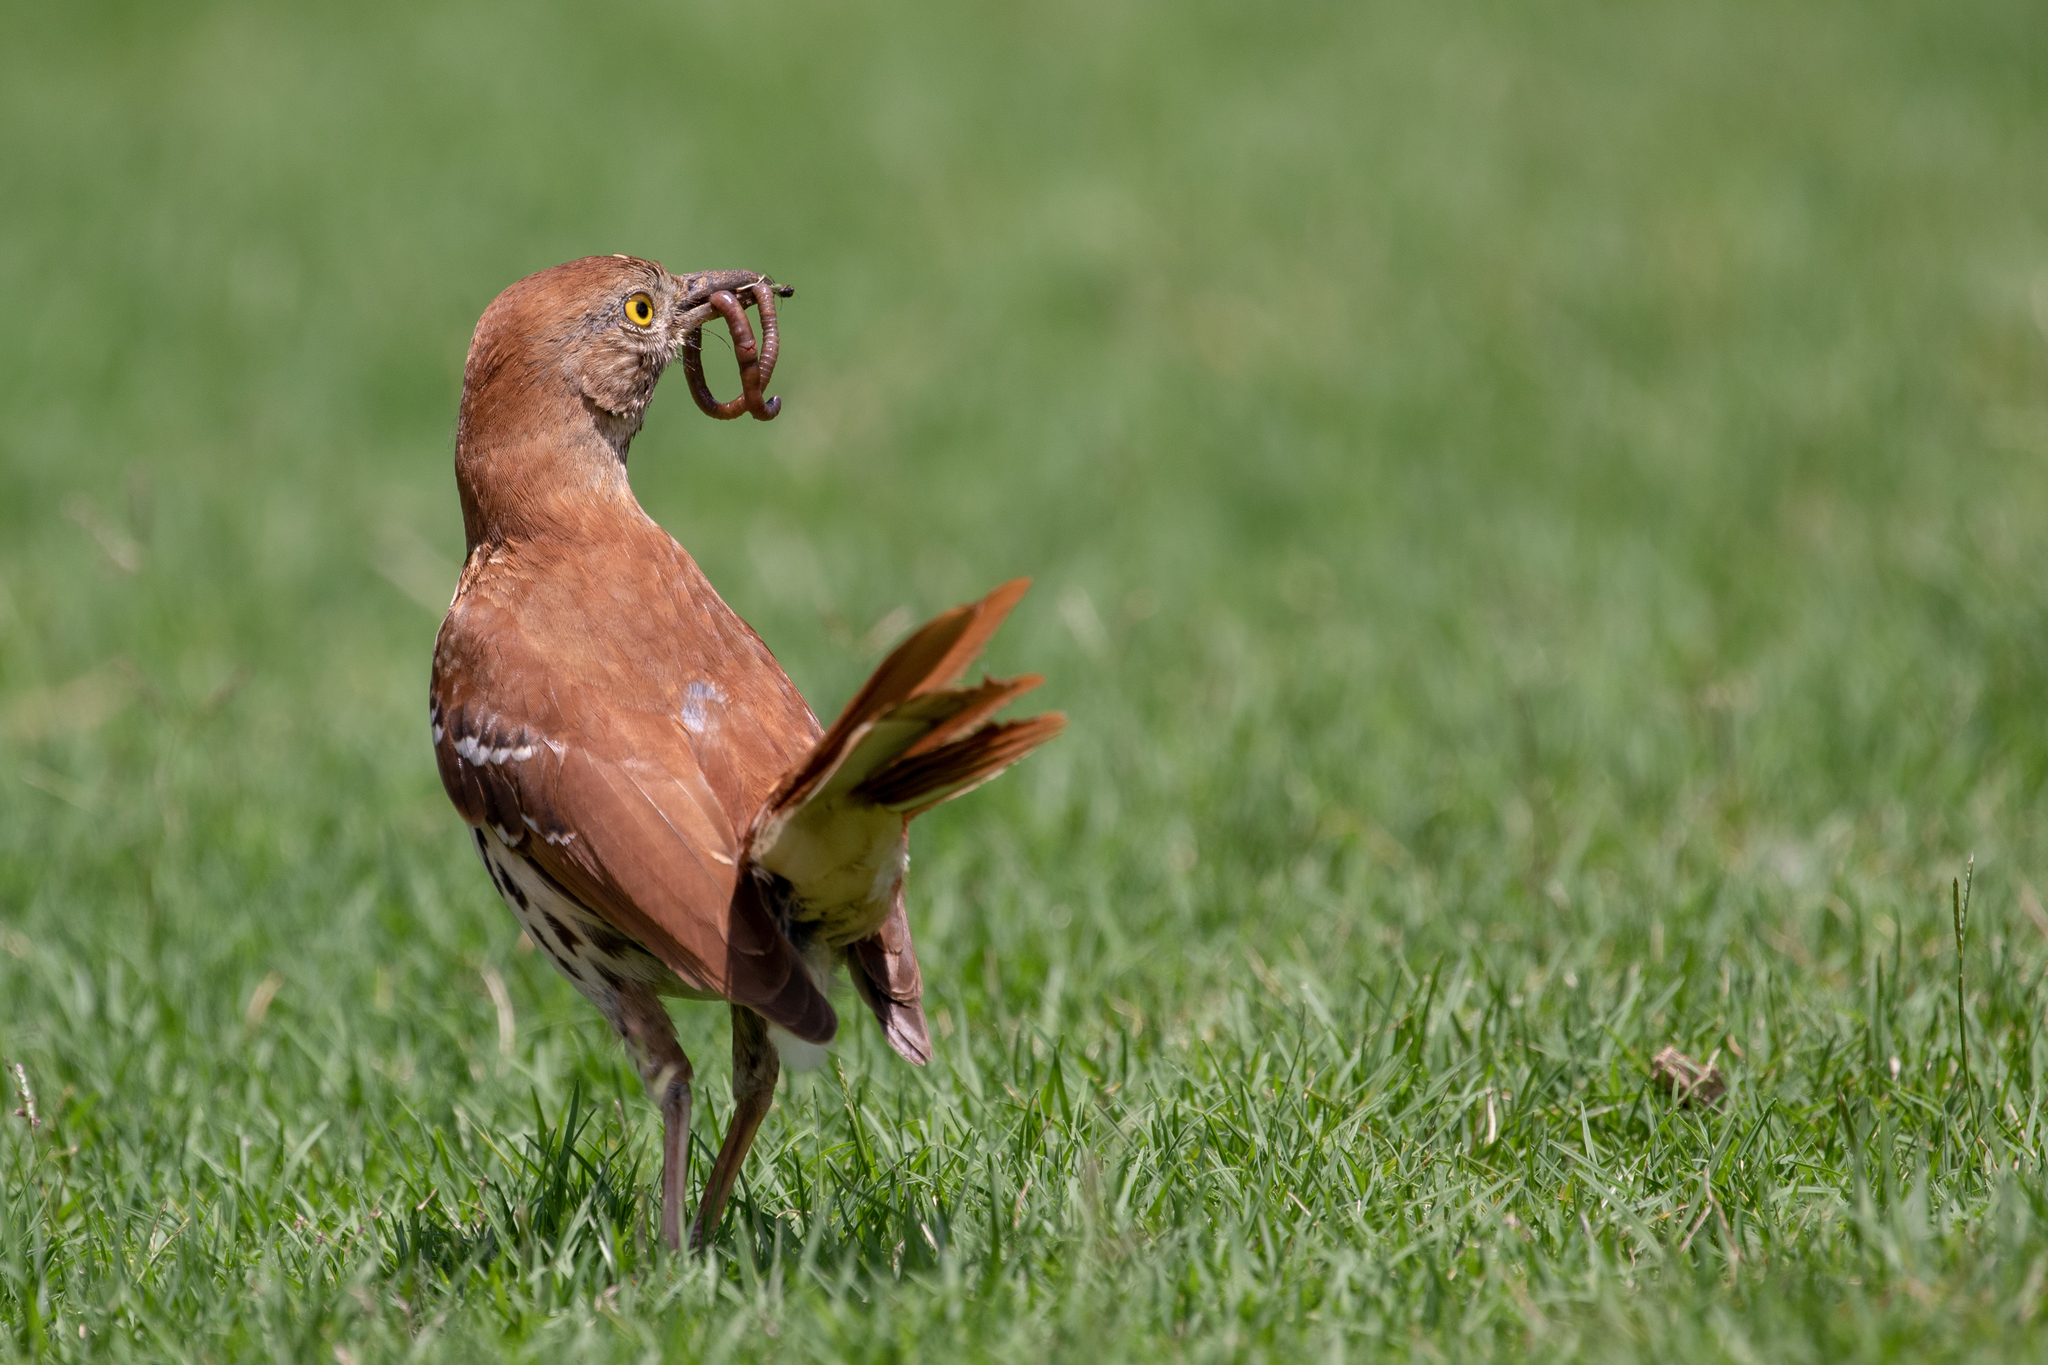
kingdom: Animalia
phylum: Chordata
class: Aves
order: Passeriformes
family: Mimidae
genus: Toxostoma
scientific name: Toxostoma rufum
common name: Brown thrasher
